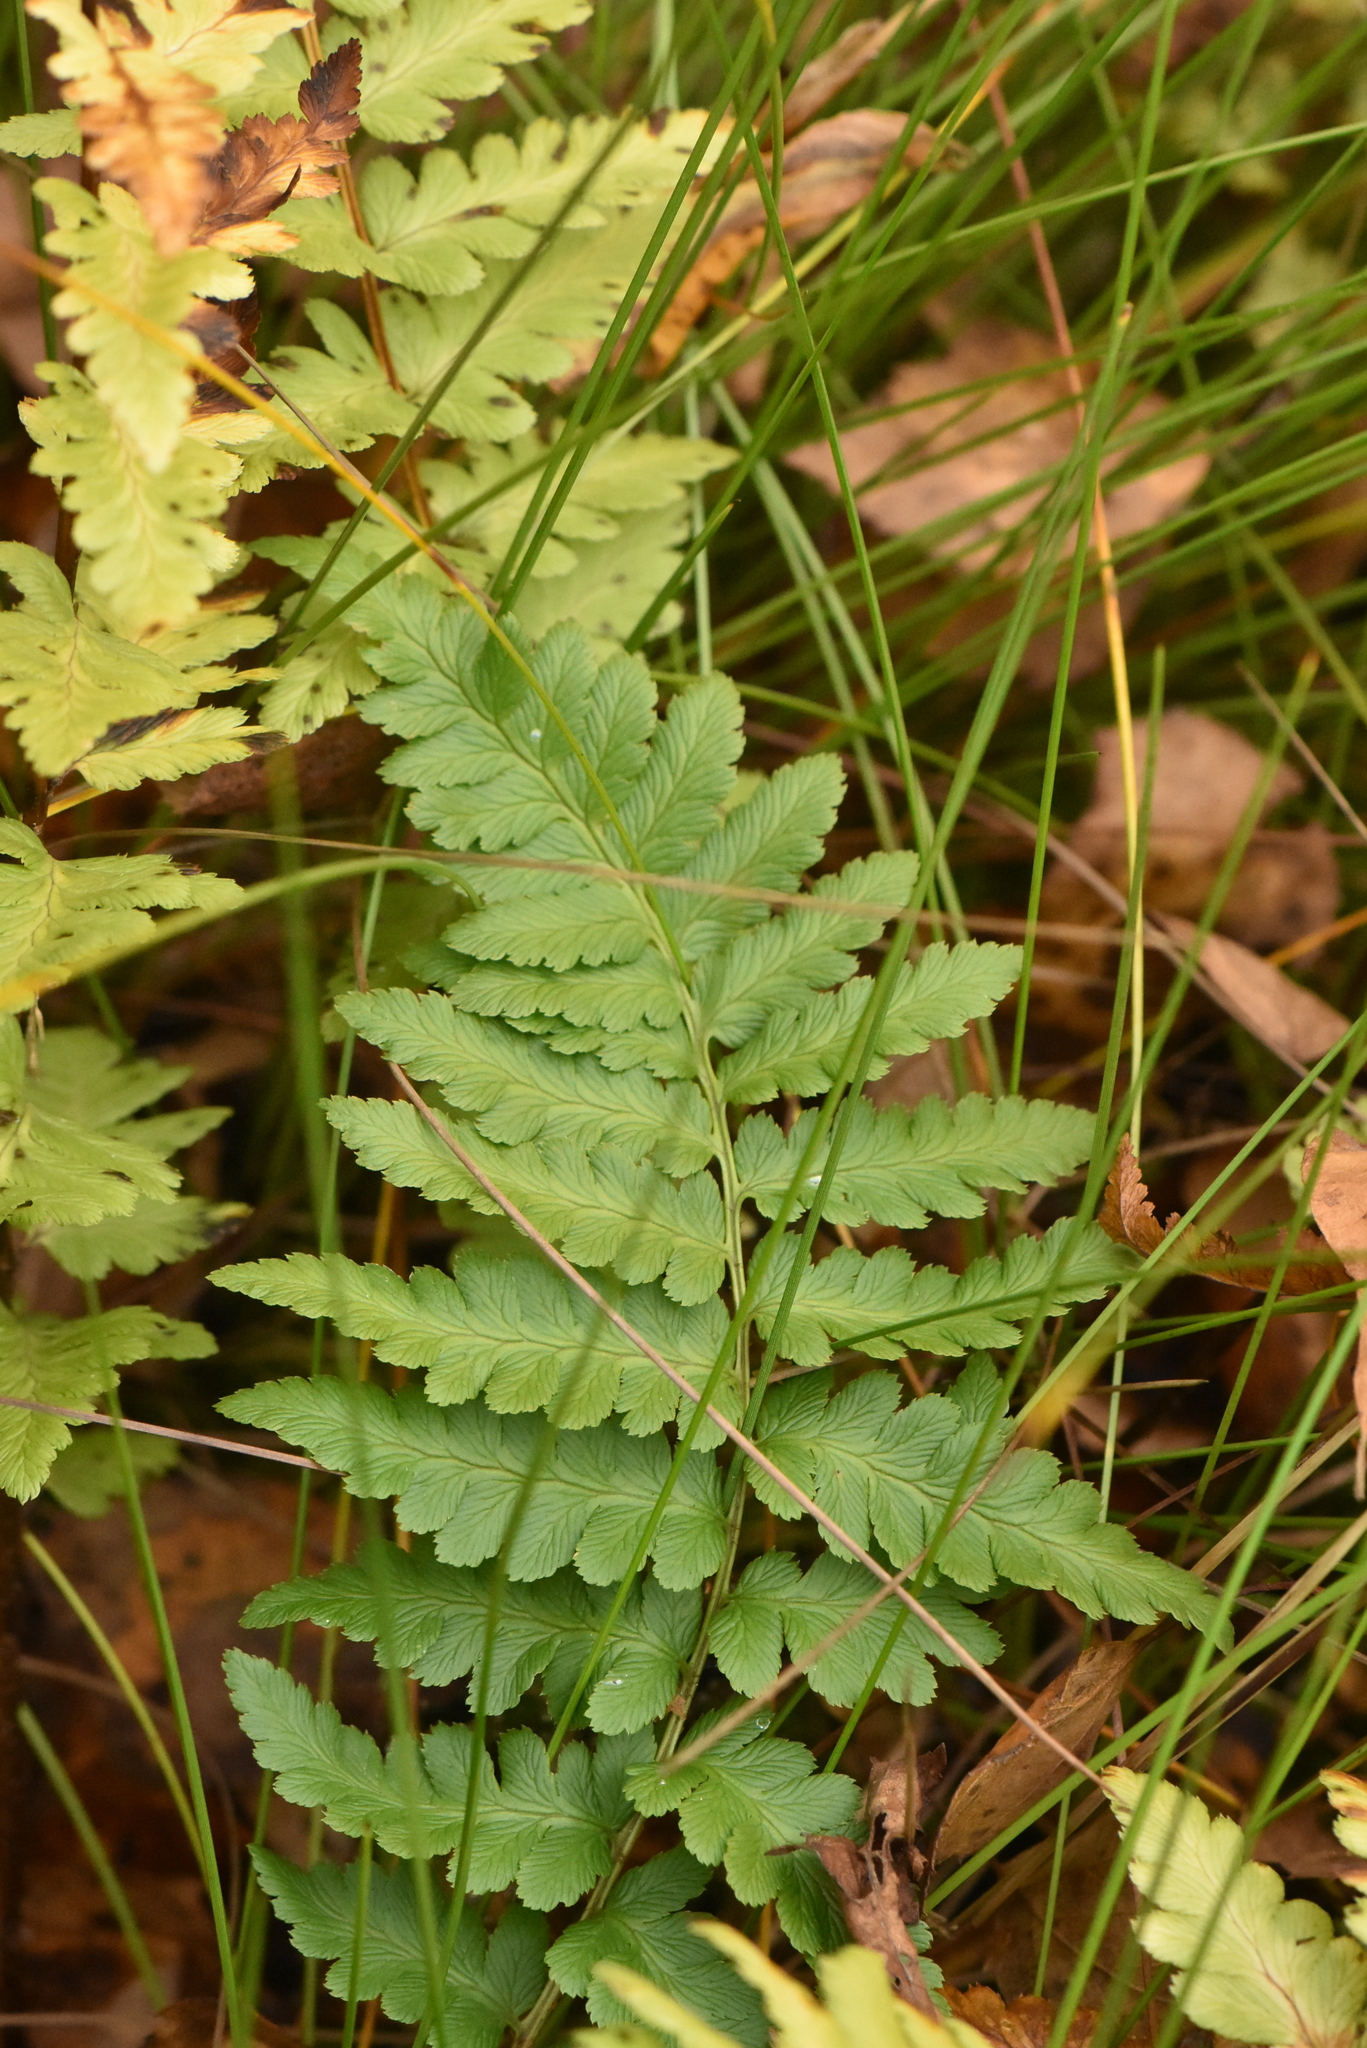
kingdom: Plantae
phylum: Tracheophyta
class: Polypodiopsida
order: Polypodiales
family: Dryopteridaceae
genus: Dryopteris
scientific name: Dryopteris cristata
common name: Crested wood fern
